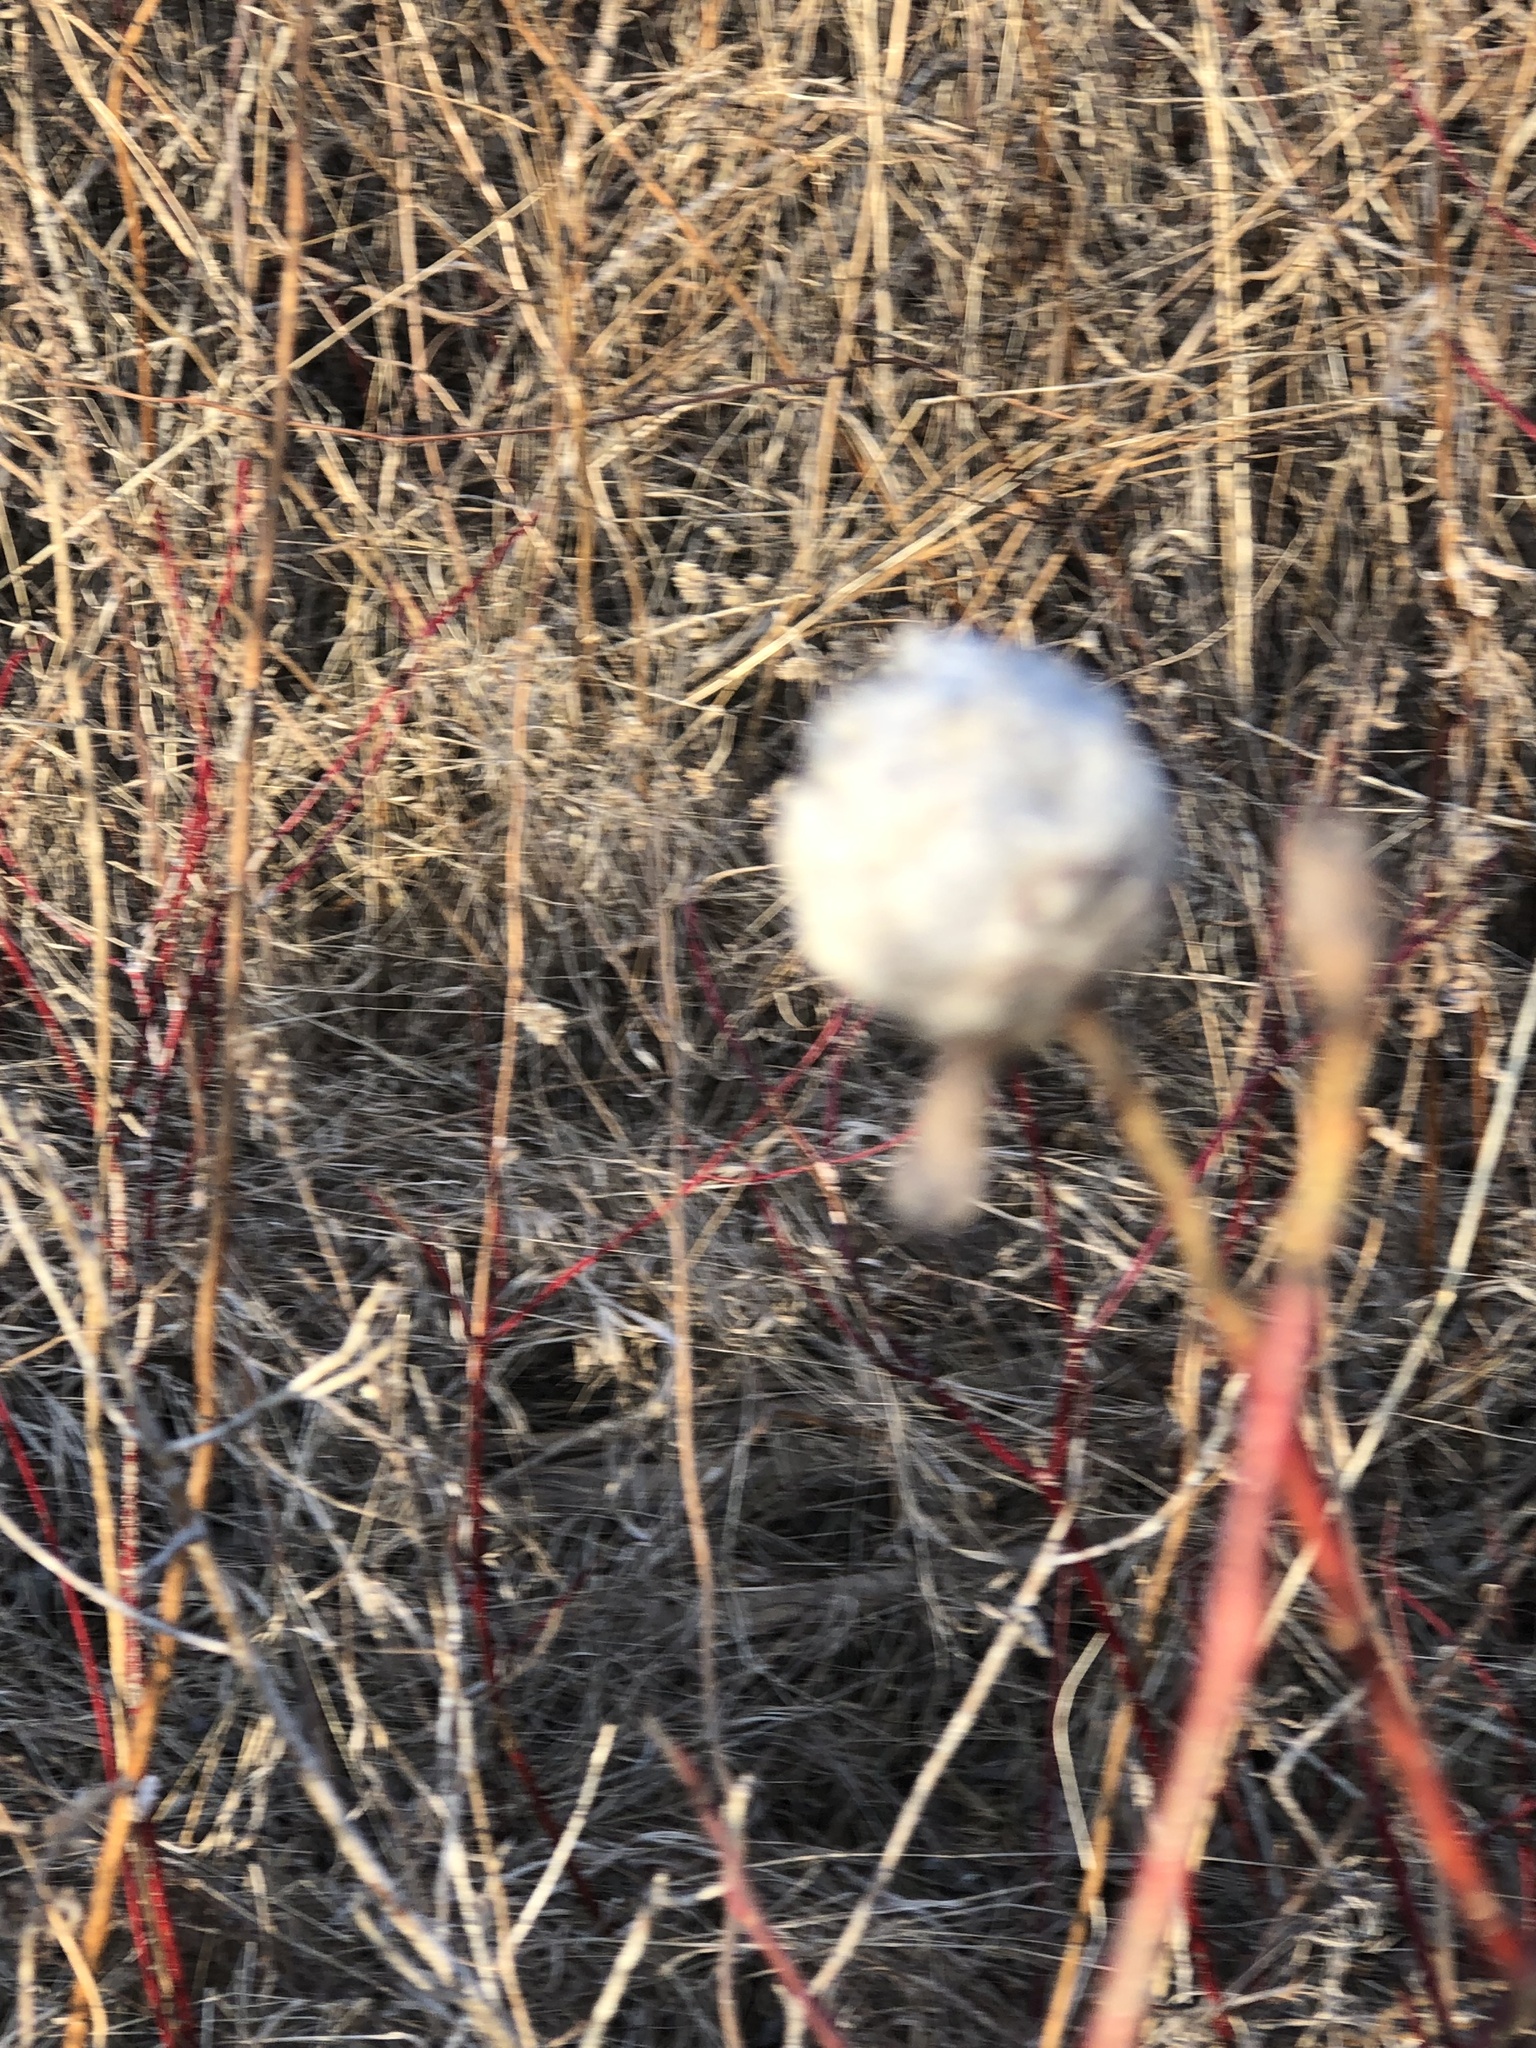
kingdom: Animalia
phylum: Arthropoda
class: Insecta
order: Diptera
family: Cecidomyiidae
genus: Rabdophaga
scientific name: Rabdophaga strobiloides
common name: Willow pinecone gall midge
